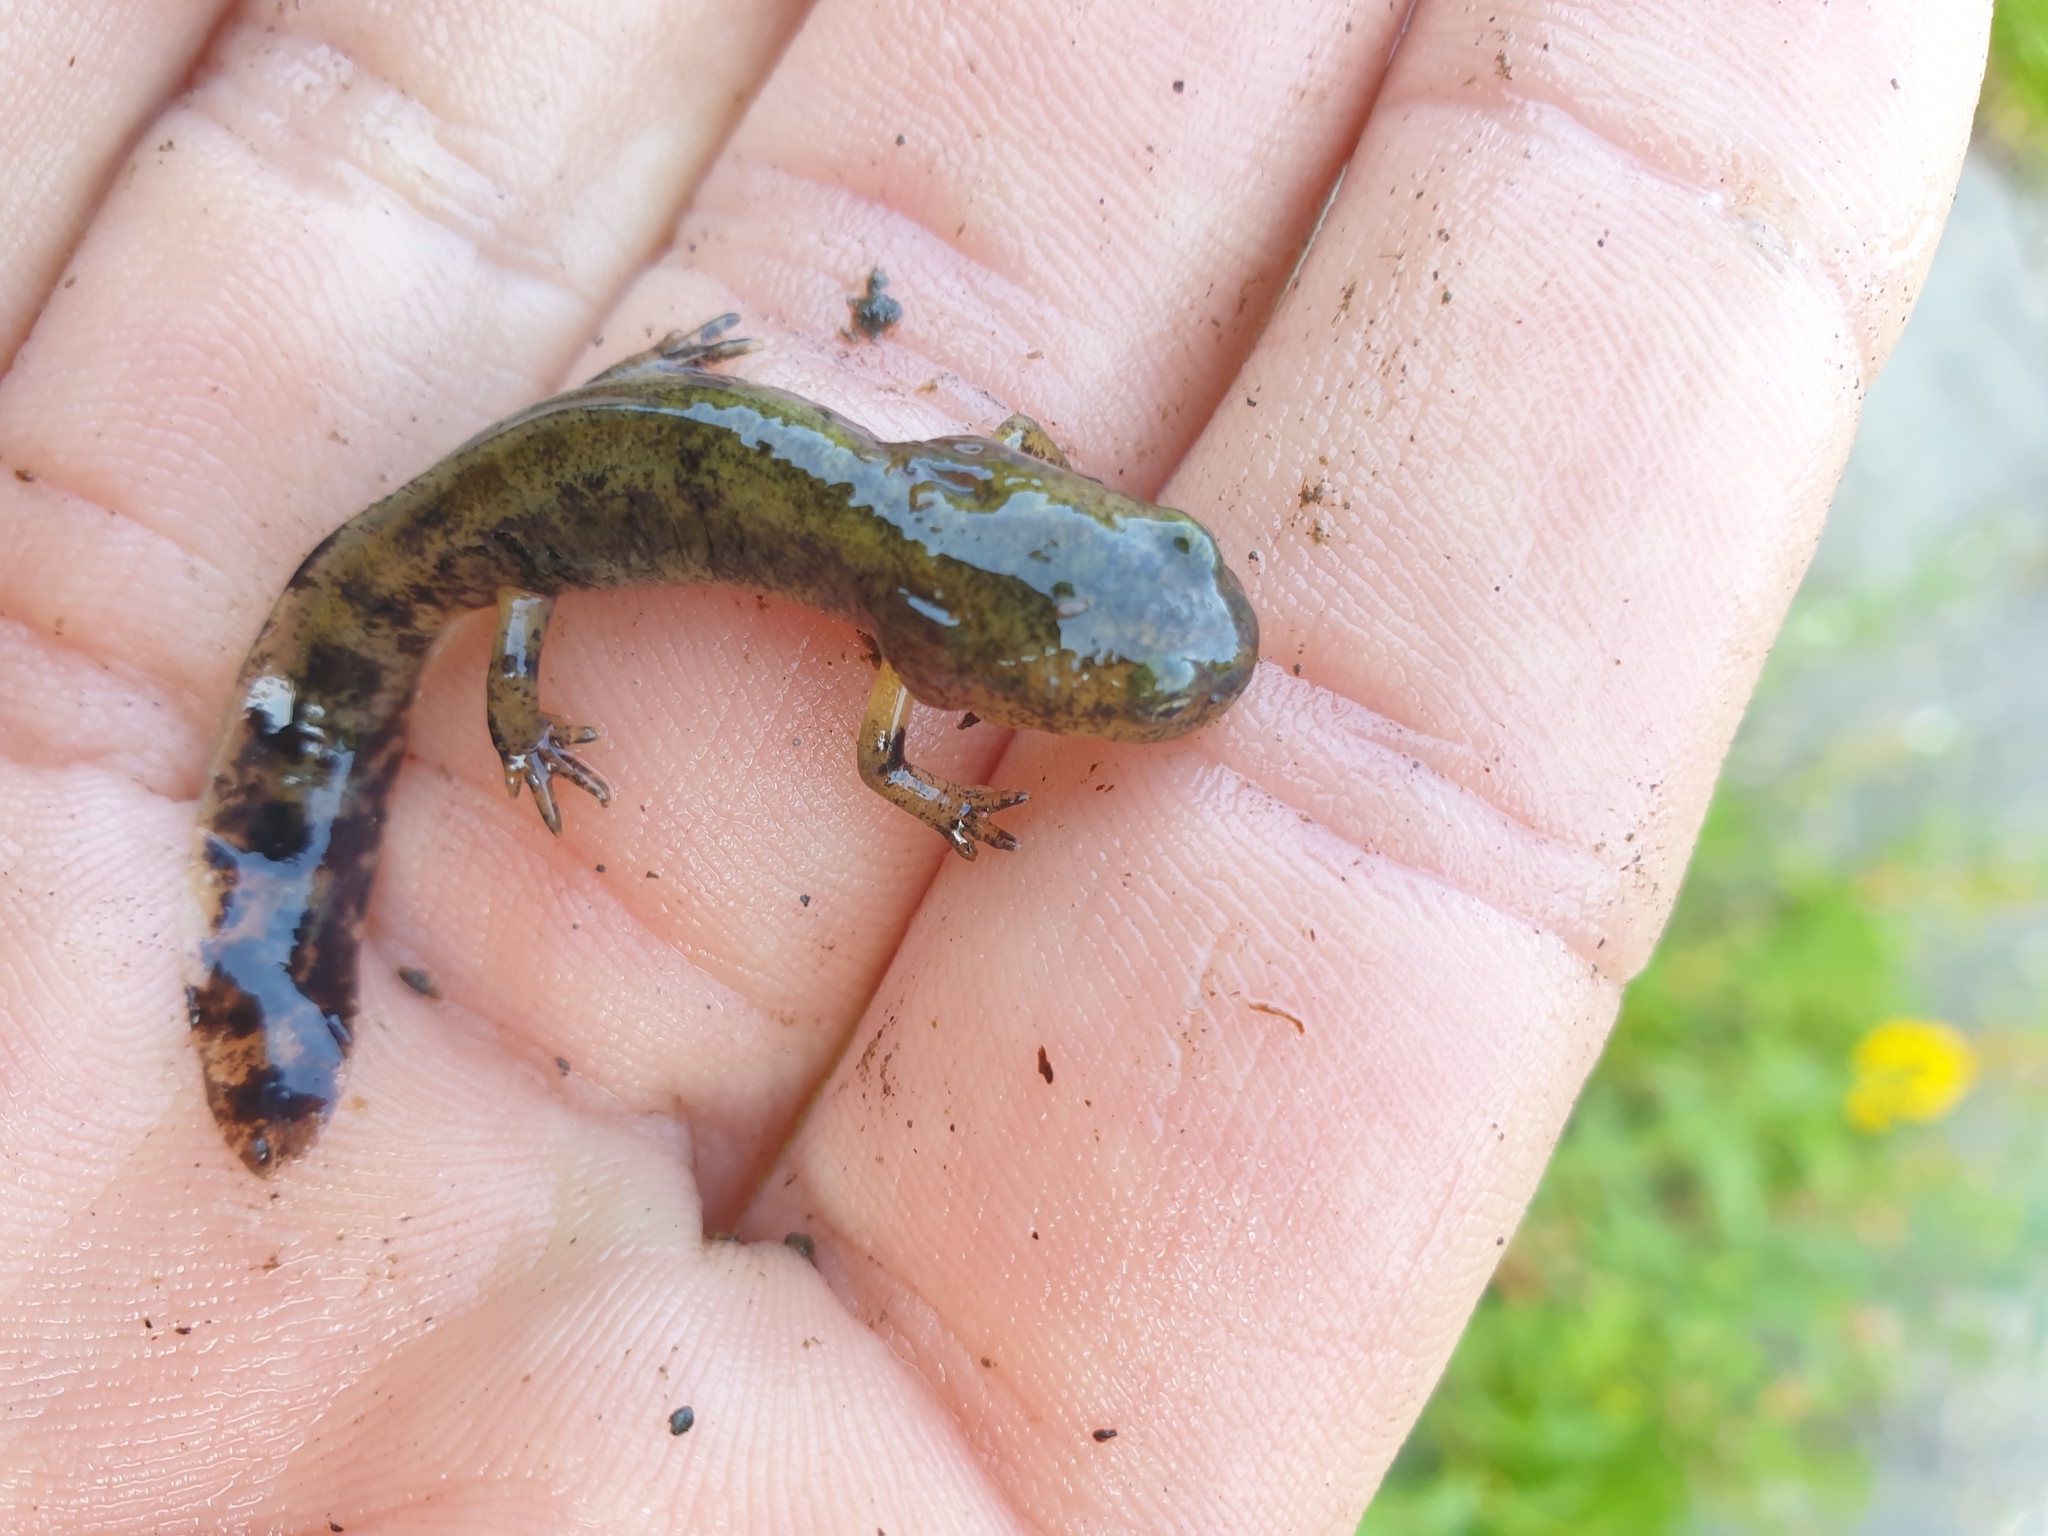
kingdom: Animalia
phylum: Chordata
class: Amphibia
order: Caudata
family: Salamandridae
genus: Salamandra
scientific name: Salamandra salamandra
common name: Fire salamander
